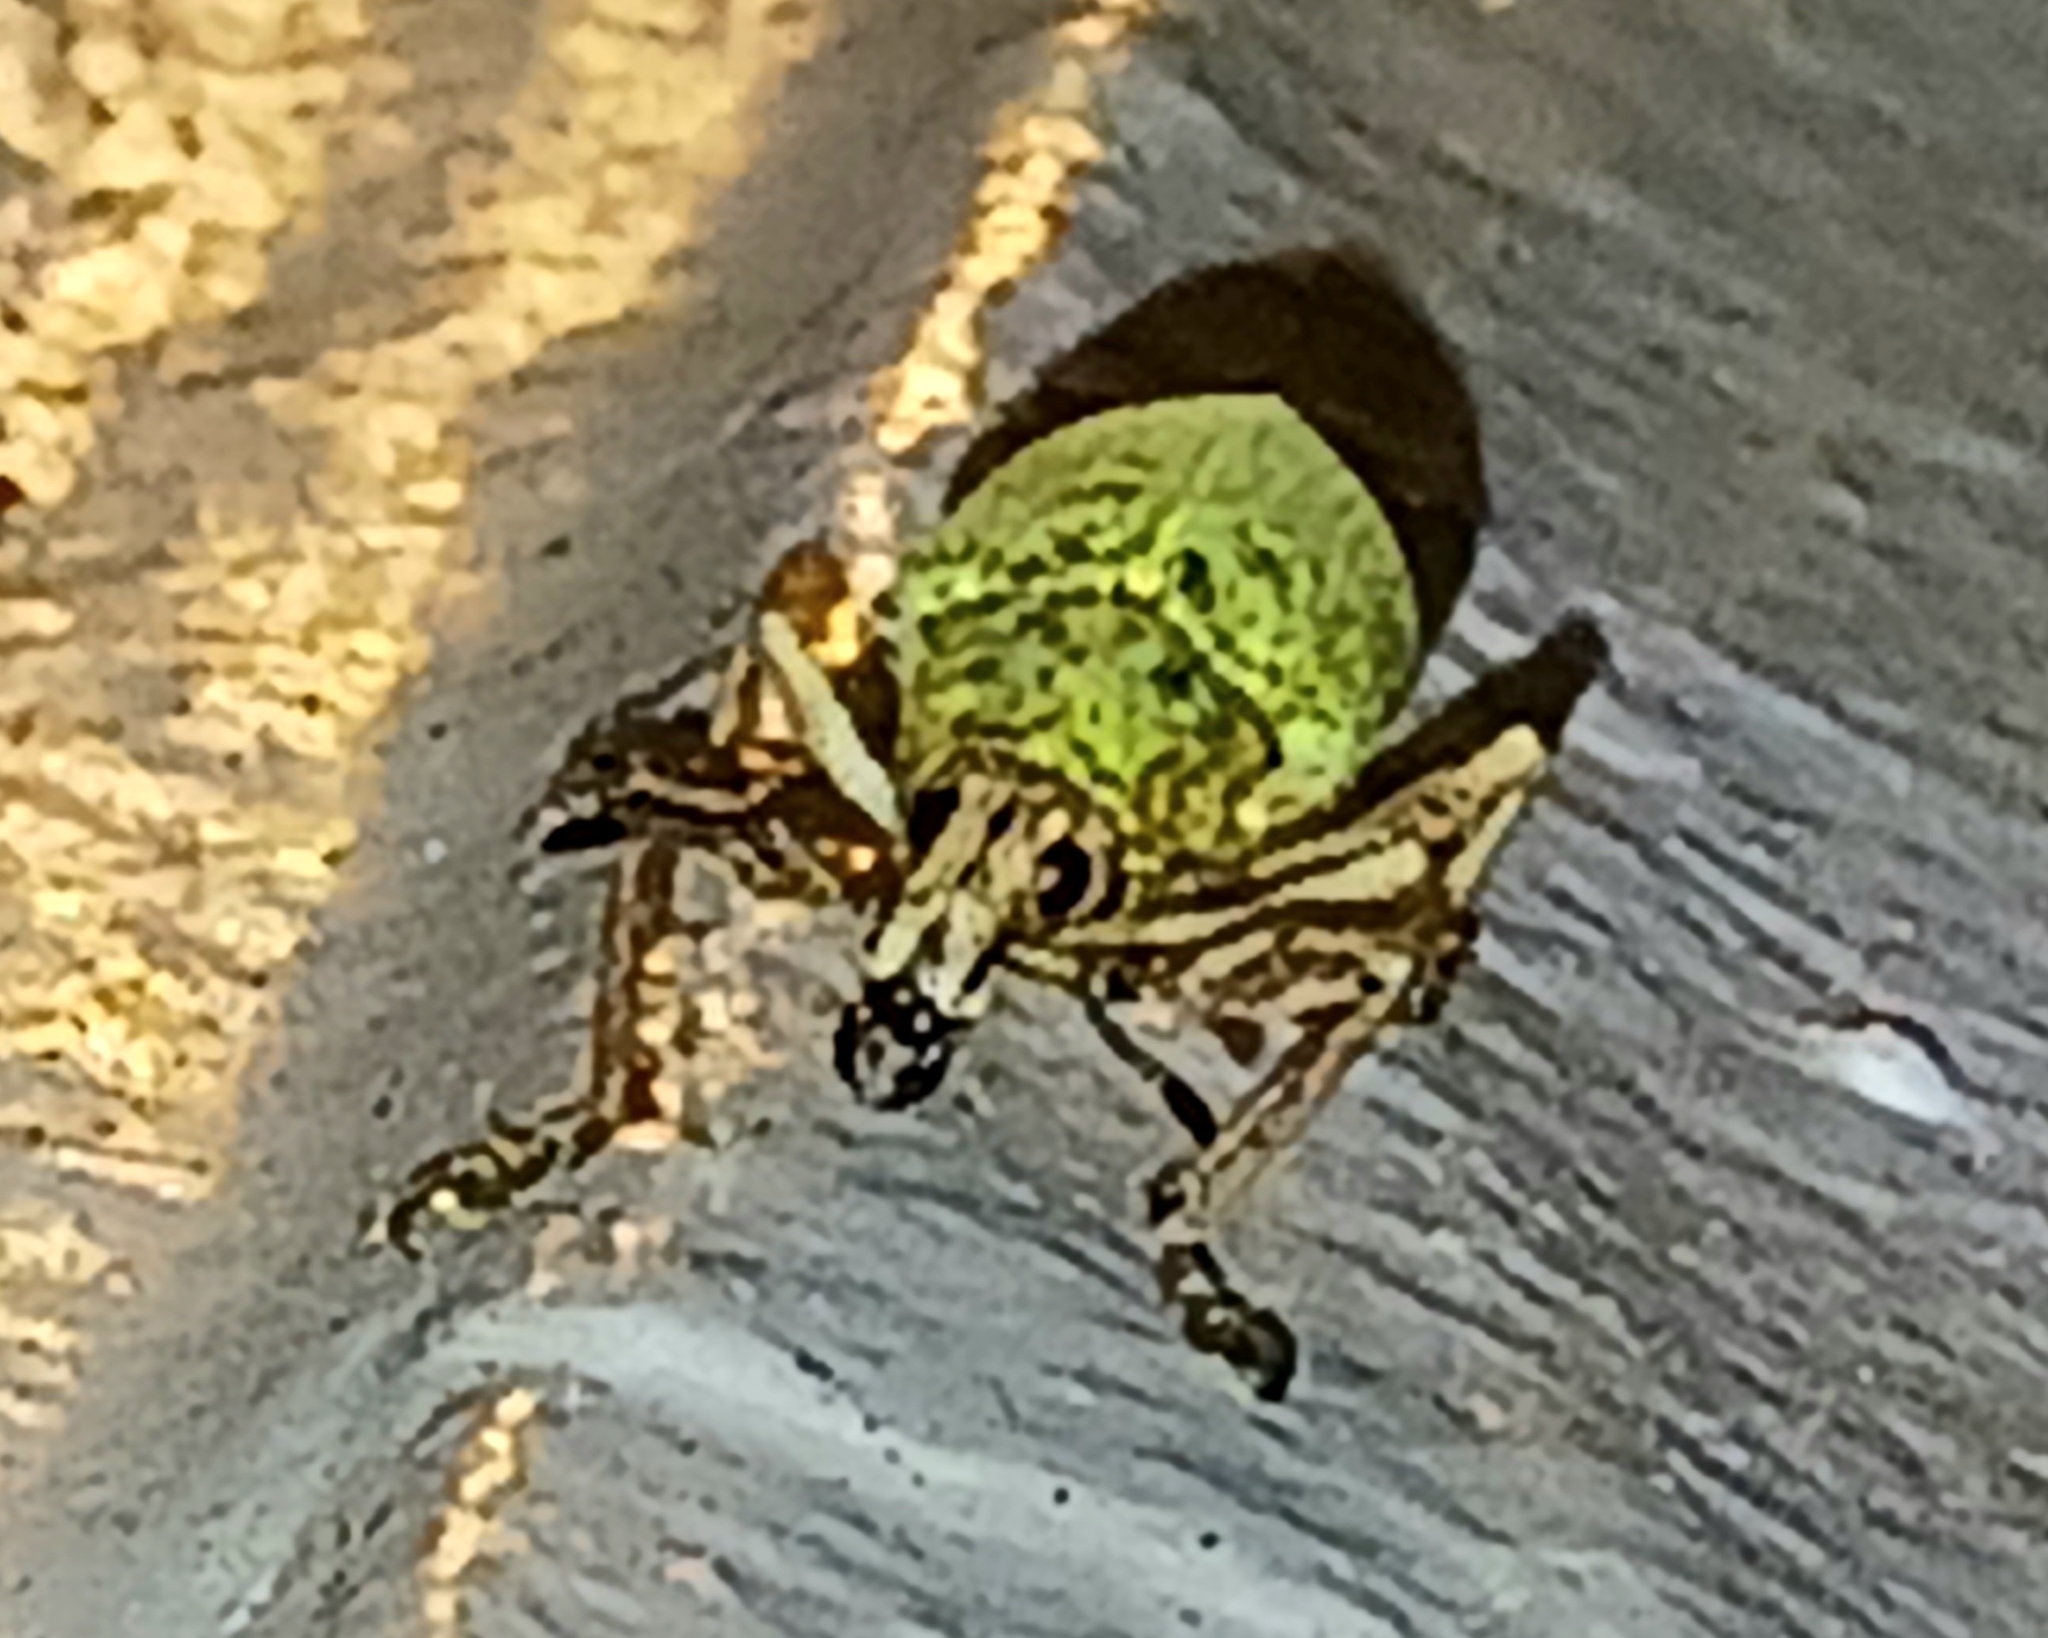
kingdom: Animalia
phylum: Arthropoda
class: Insecta
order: Coleoptera
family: Curculionidae
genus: Pachnaeus
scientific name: Pachnaeus litus
